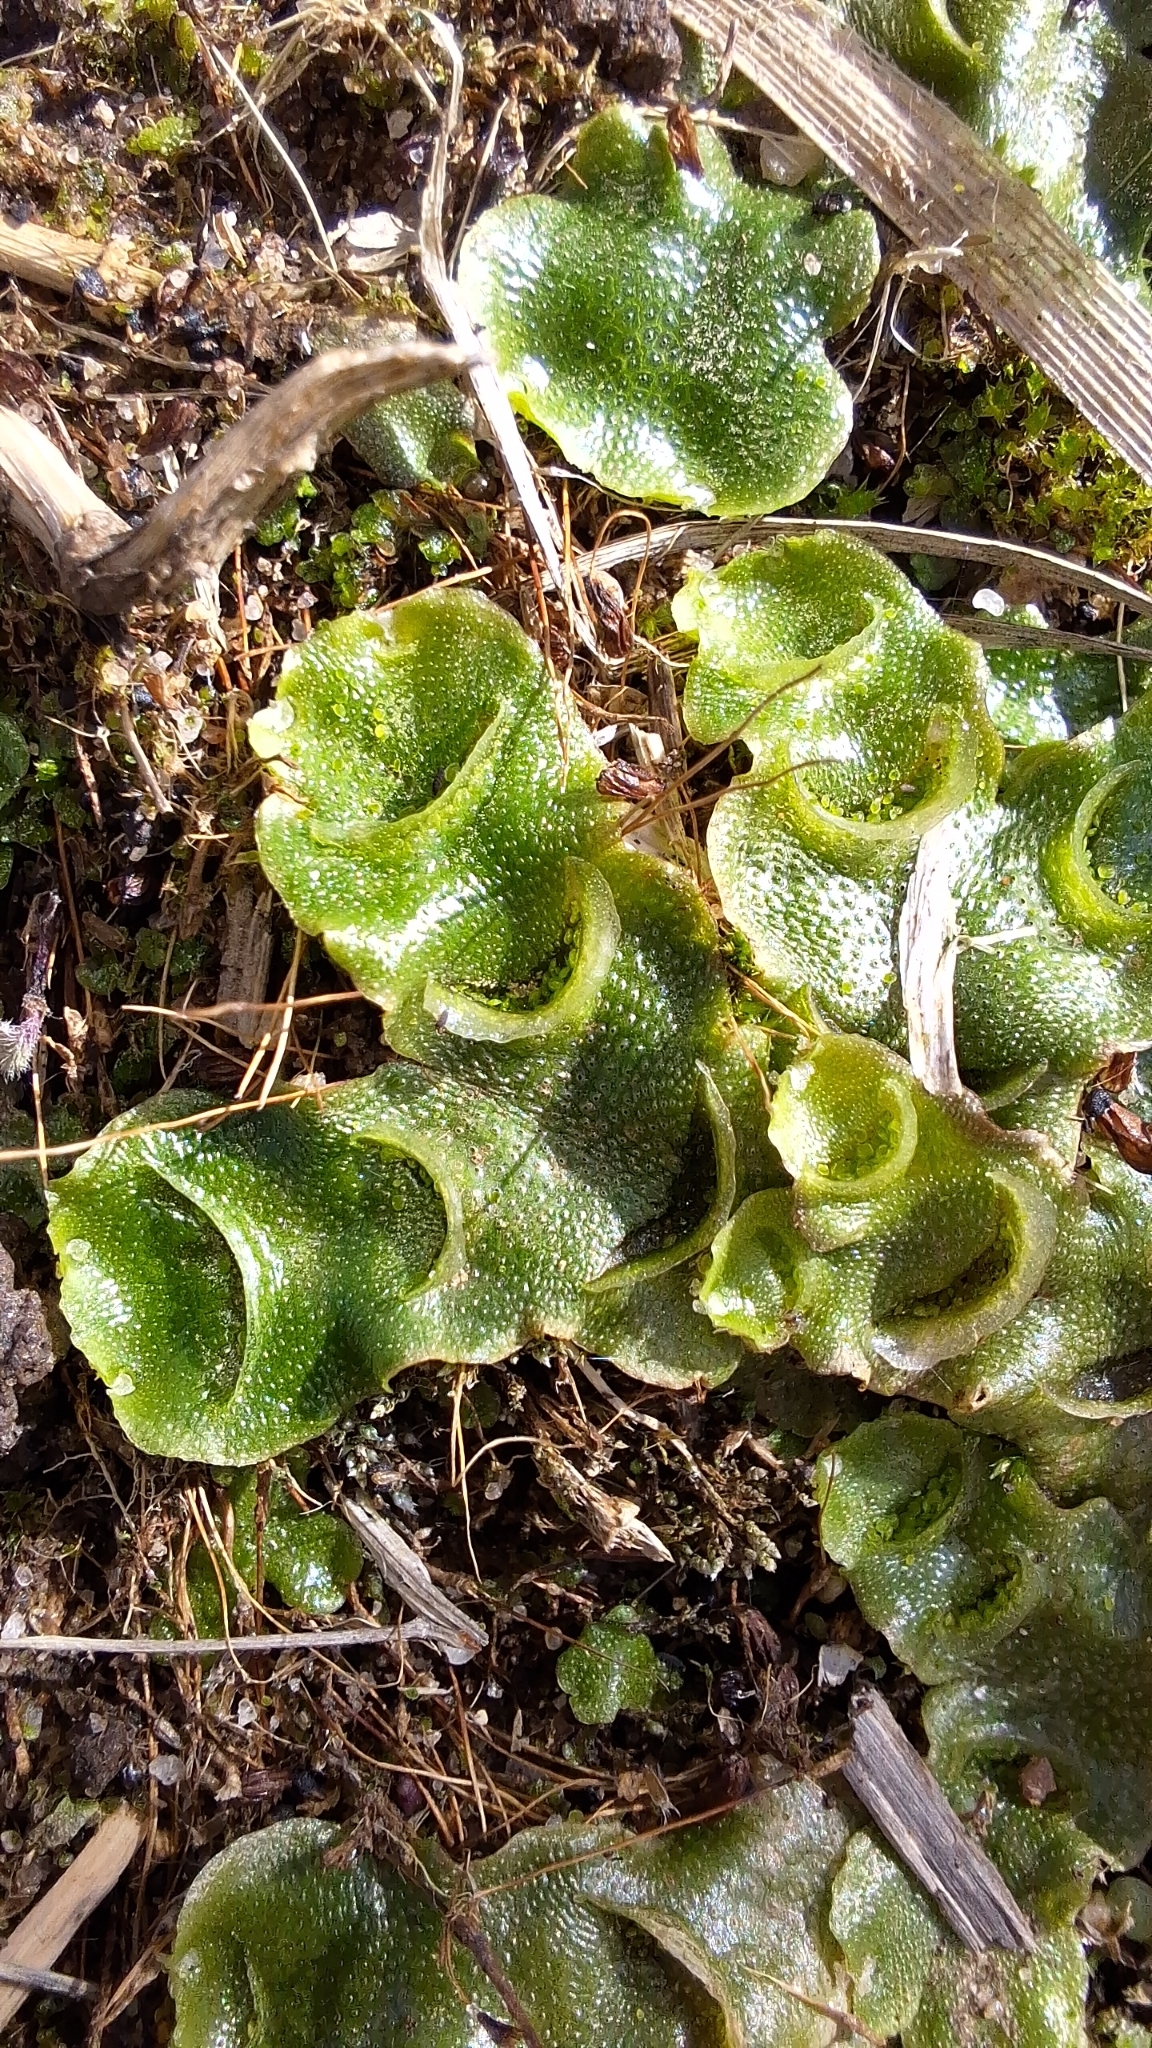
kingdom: Plantae
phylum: Marchantiophyta
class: Marchantiopsida
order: Lunulariales
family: Lunulariaceae
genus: Lunularia
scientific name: Lunularia cruciata
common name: Crescent-cup liverwort
